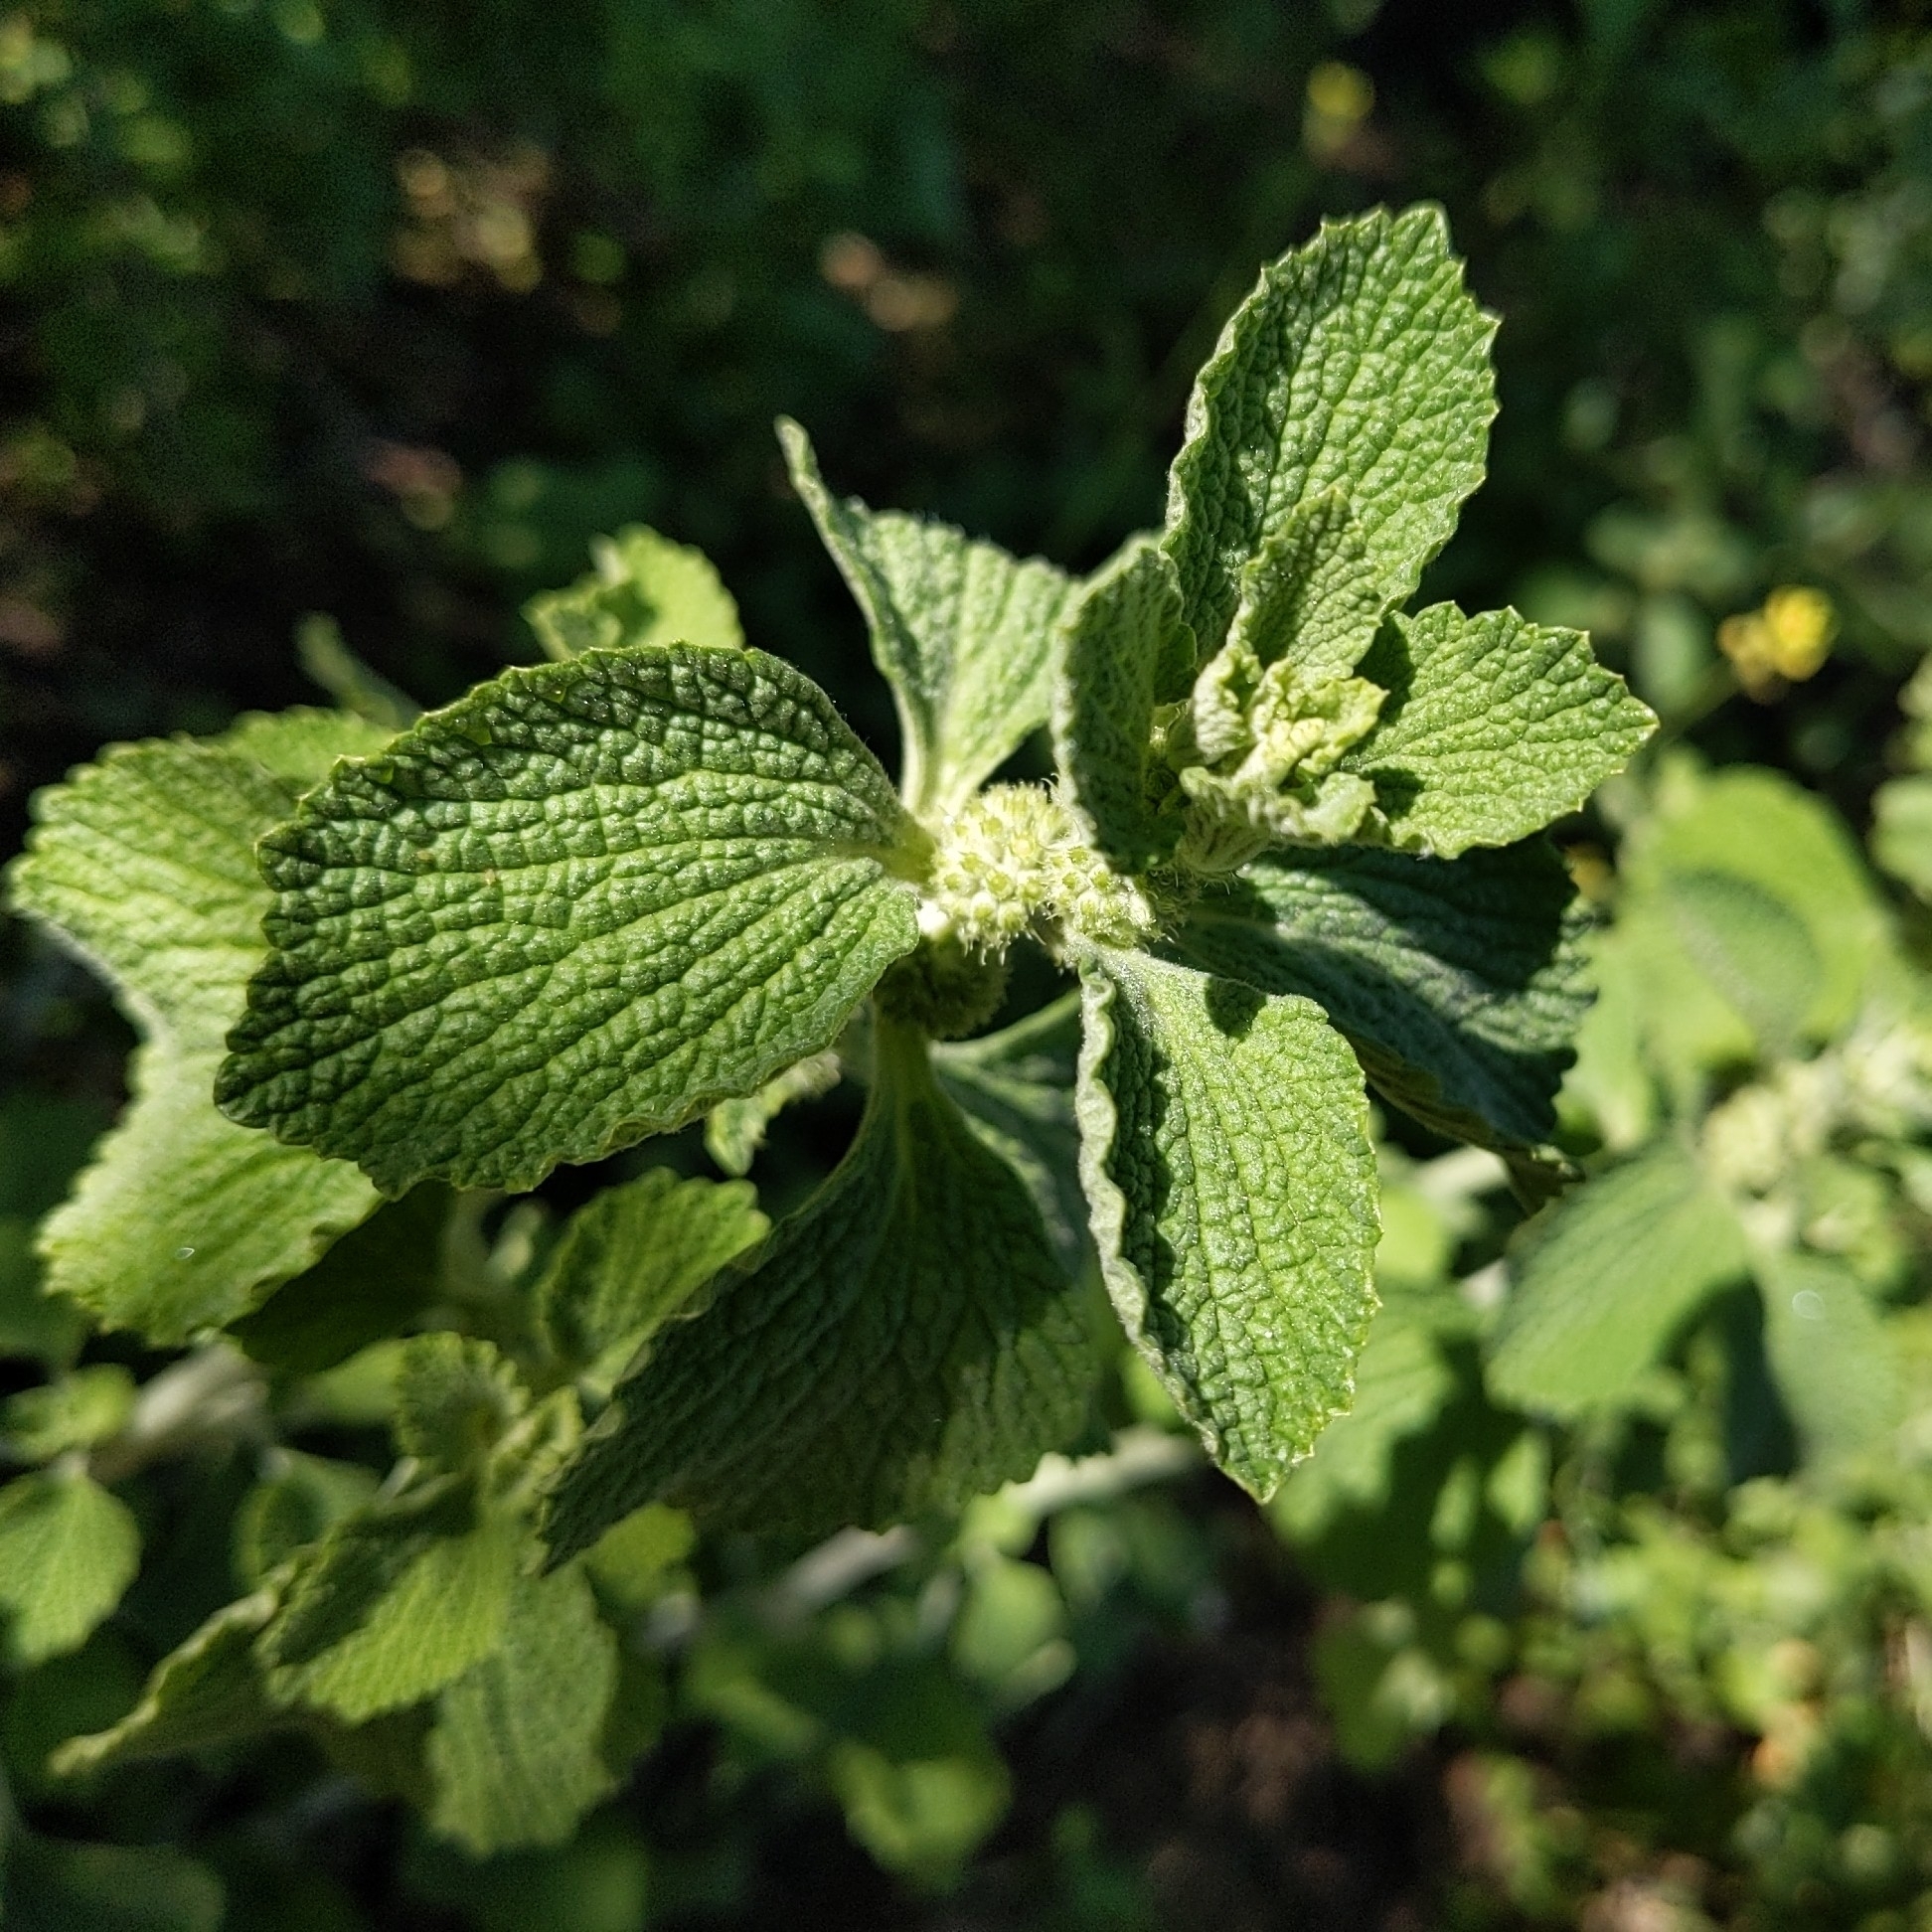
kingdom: Plantae
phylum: Tracheophyta
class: Magnoliopsida
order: Lamiales
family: Lamiaceae
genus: Marrubium
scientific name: Marrubium vulgare
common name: Horehound
